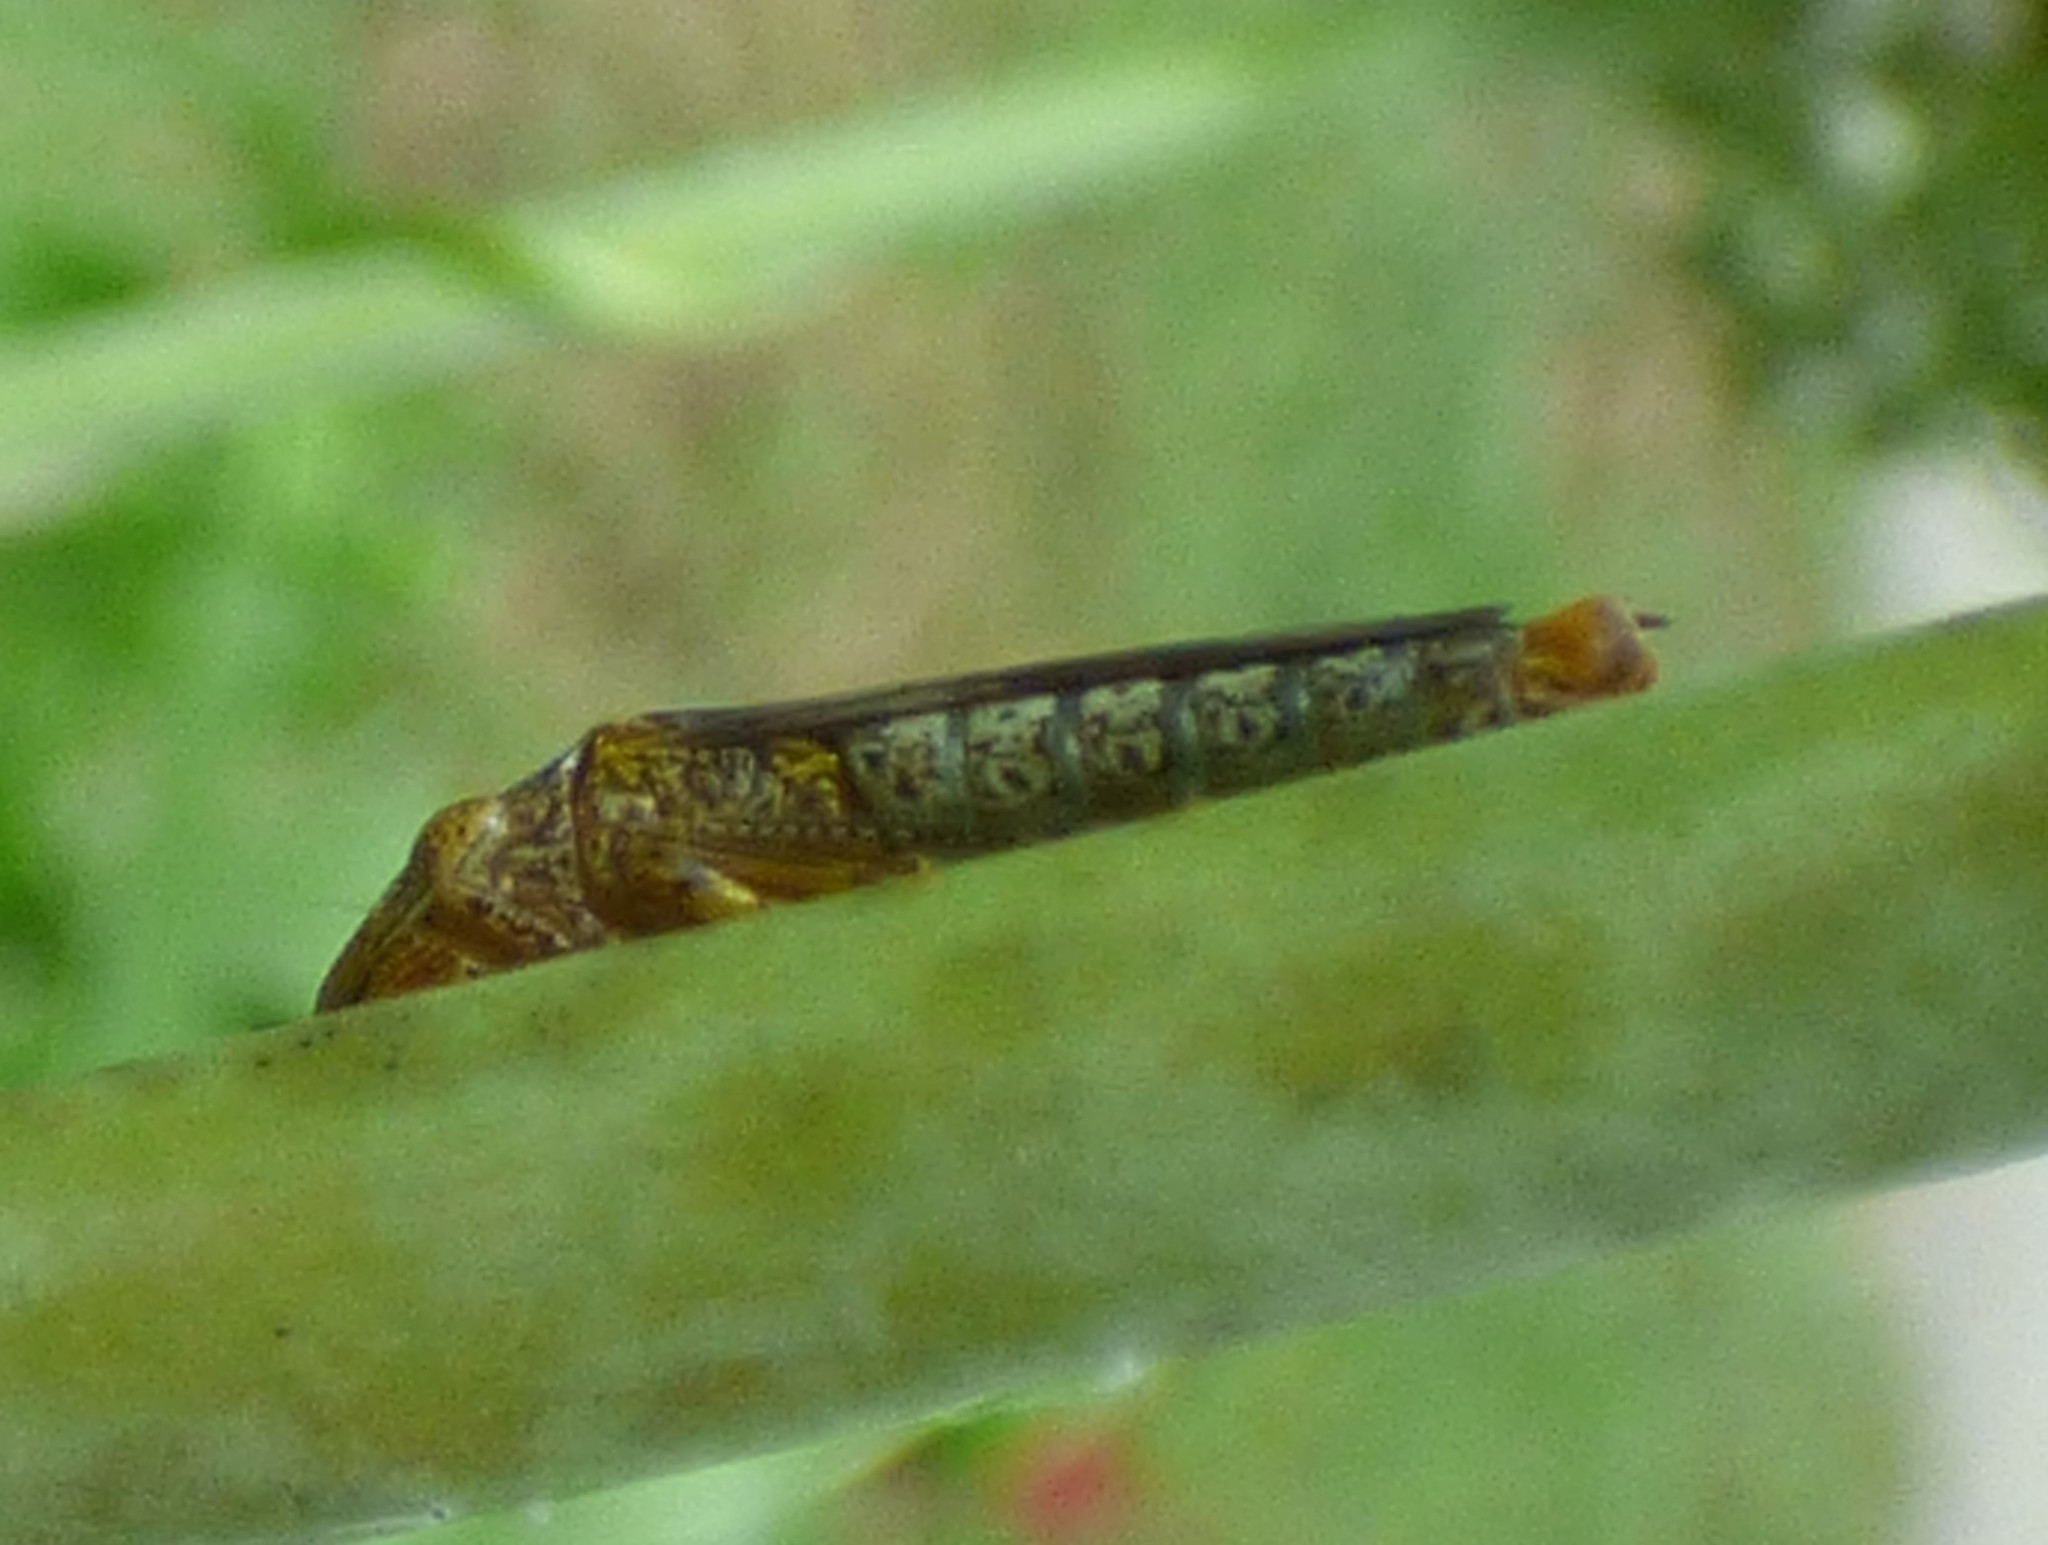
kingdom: Animalia
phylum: Arthropoda
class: Insecta
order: Hemiptera
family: Cicadellidae
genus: Homalodisca
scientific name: Homalodisca vitripennis
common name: Glassy-winged sharpshooter
